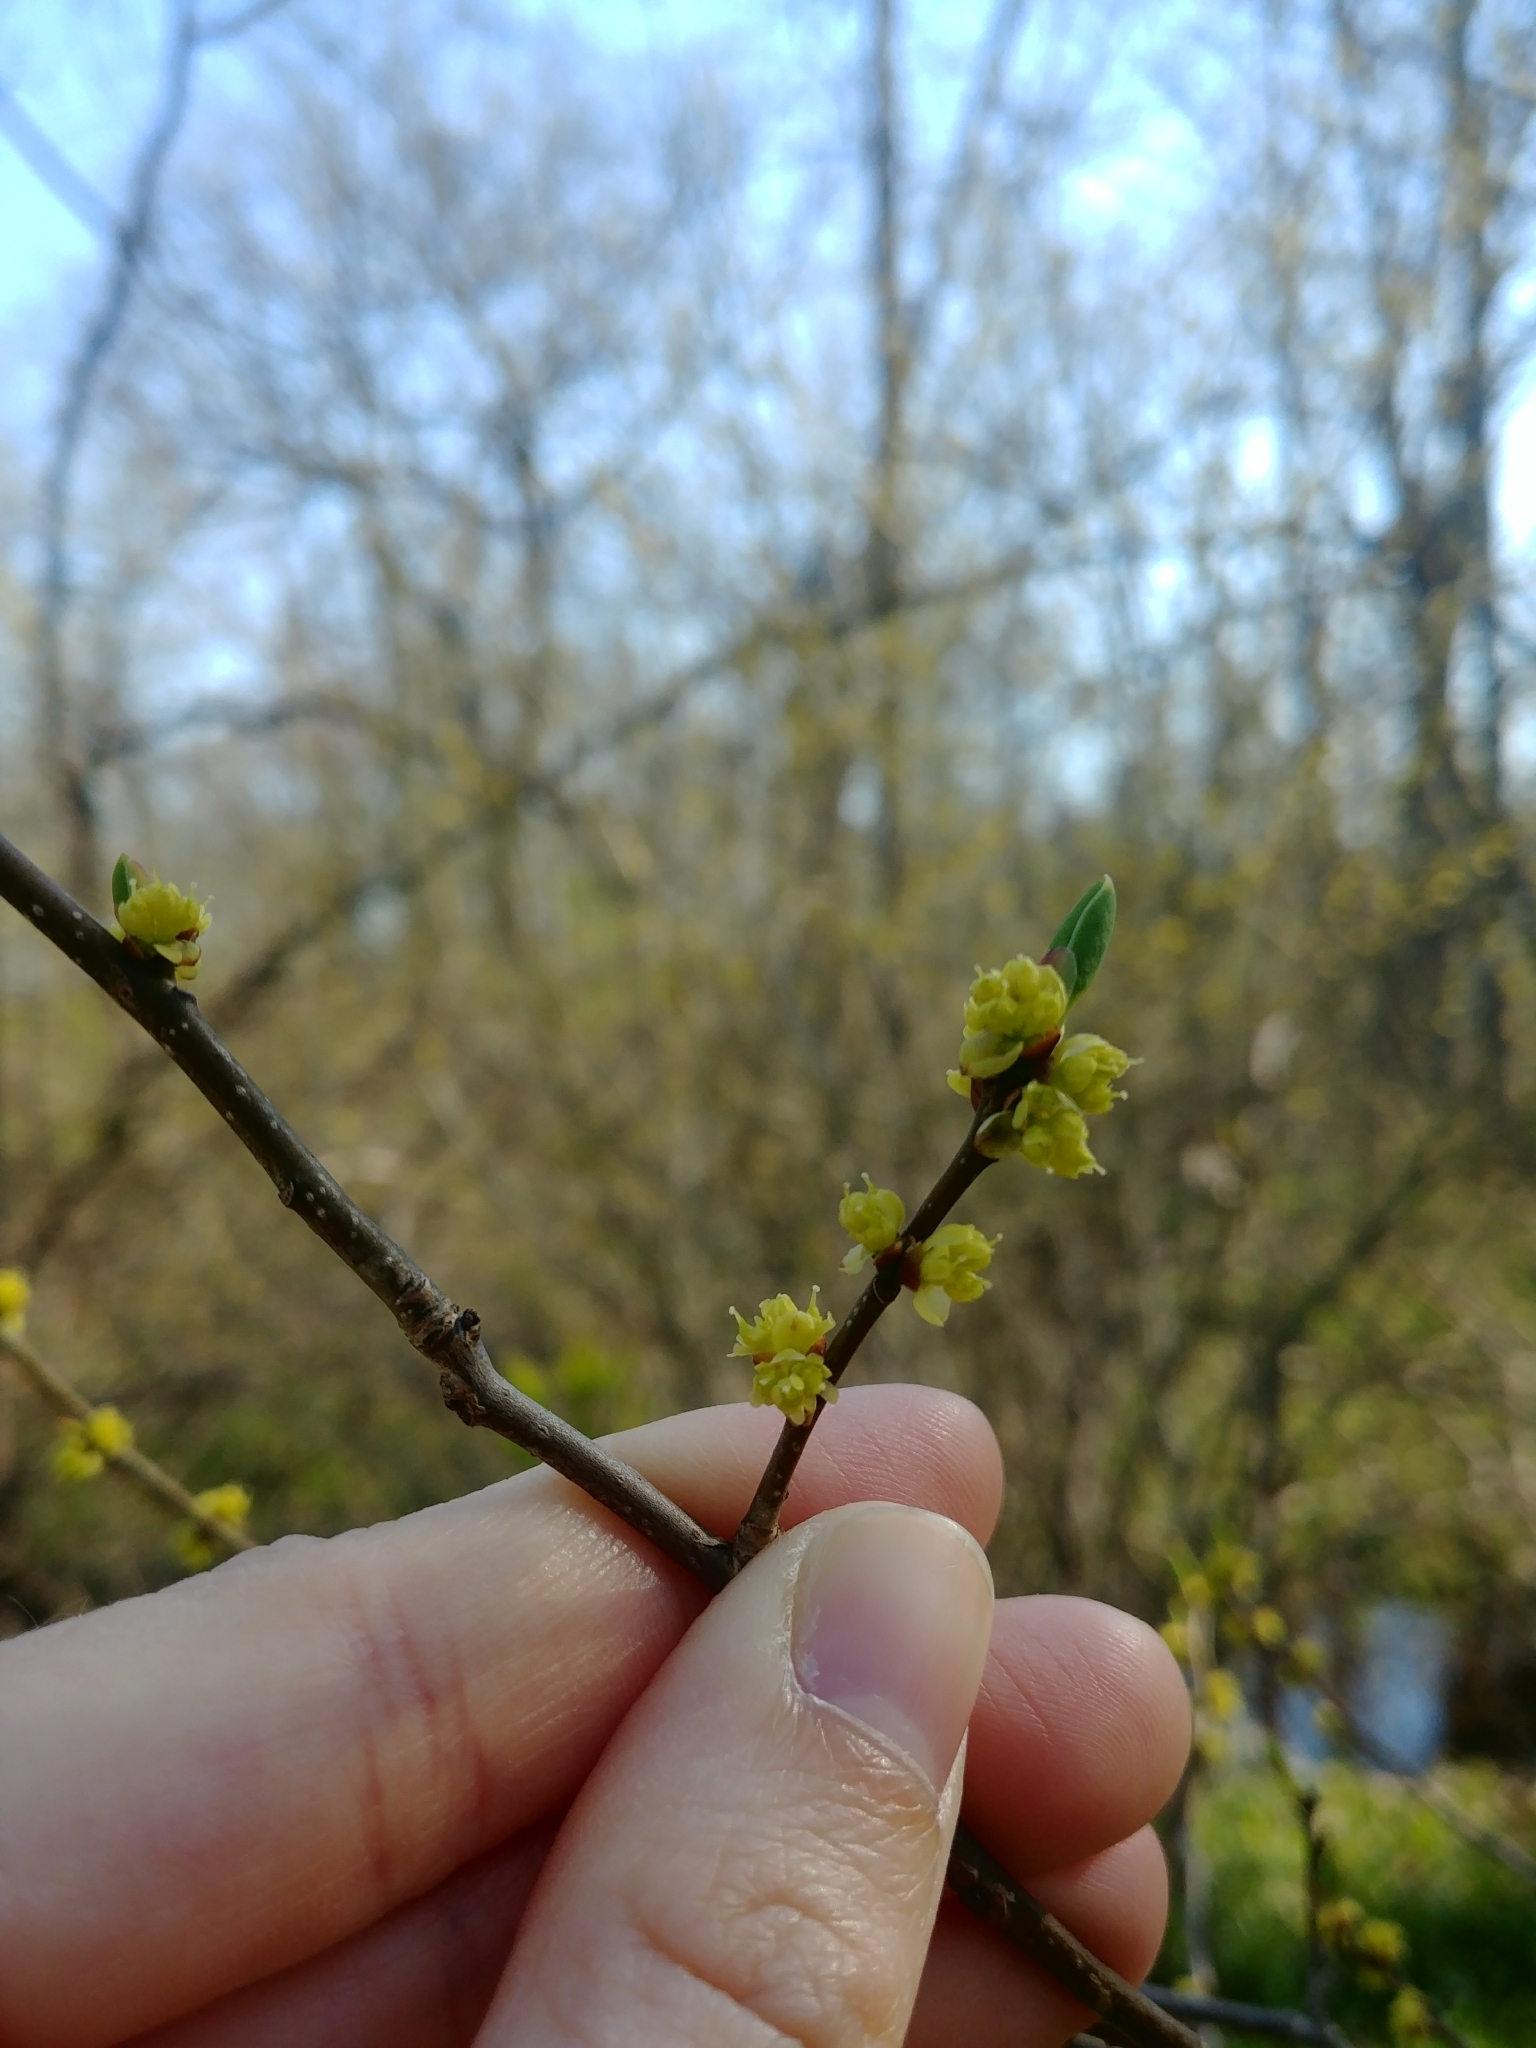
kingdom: Plantae
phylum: Tracheophyta
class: Magnoliopsida
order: Laurales
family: Lauraceae
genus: Lindera
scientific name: Lindera benzoin
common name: Spicebush
